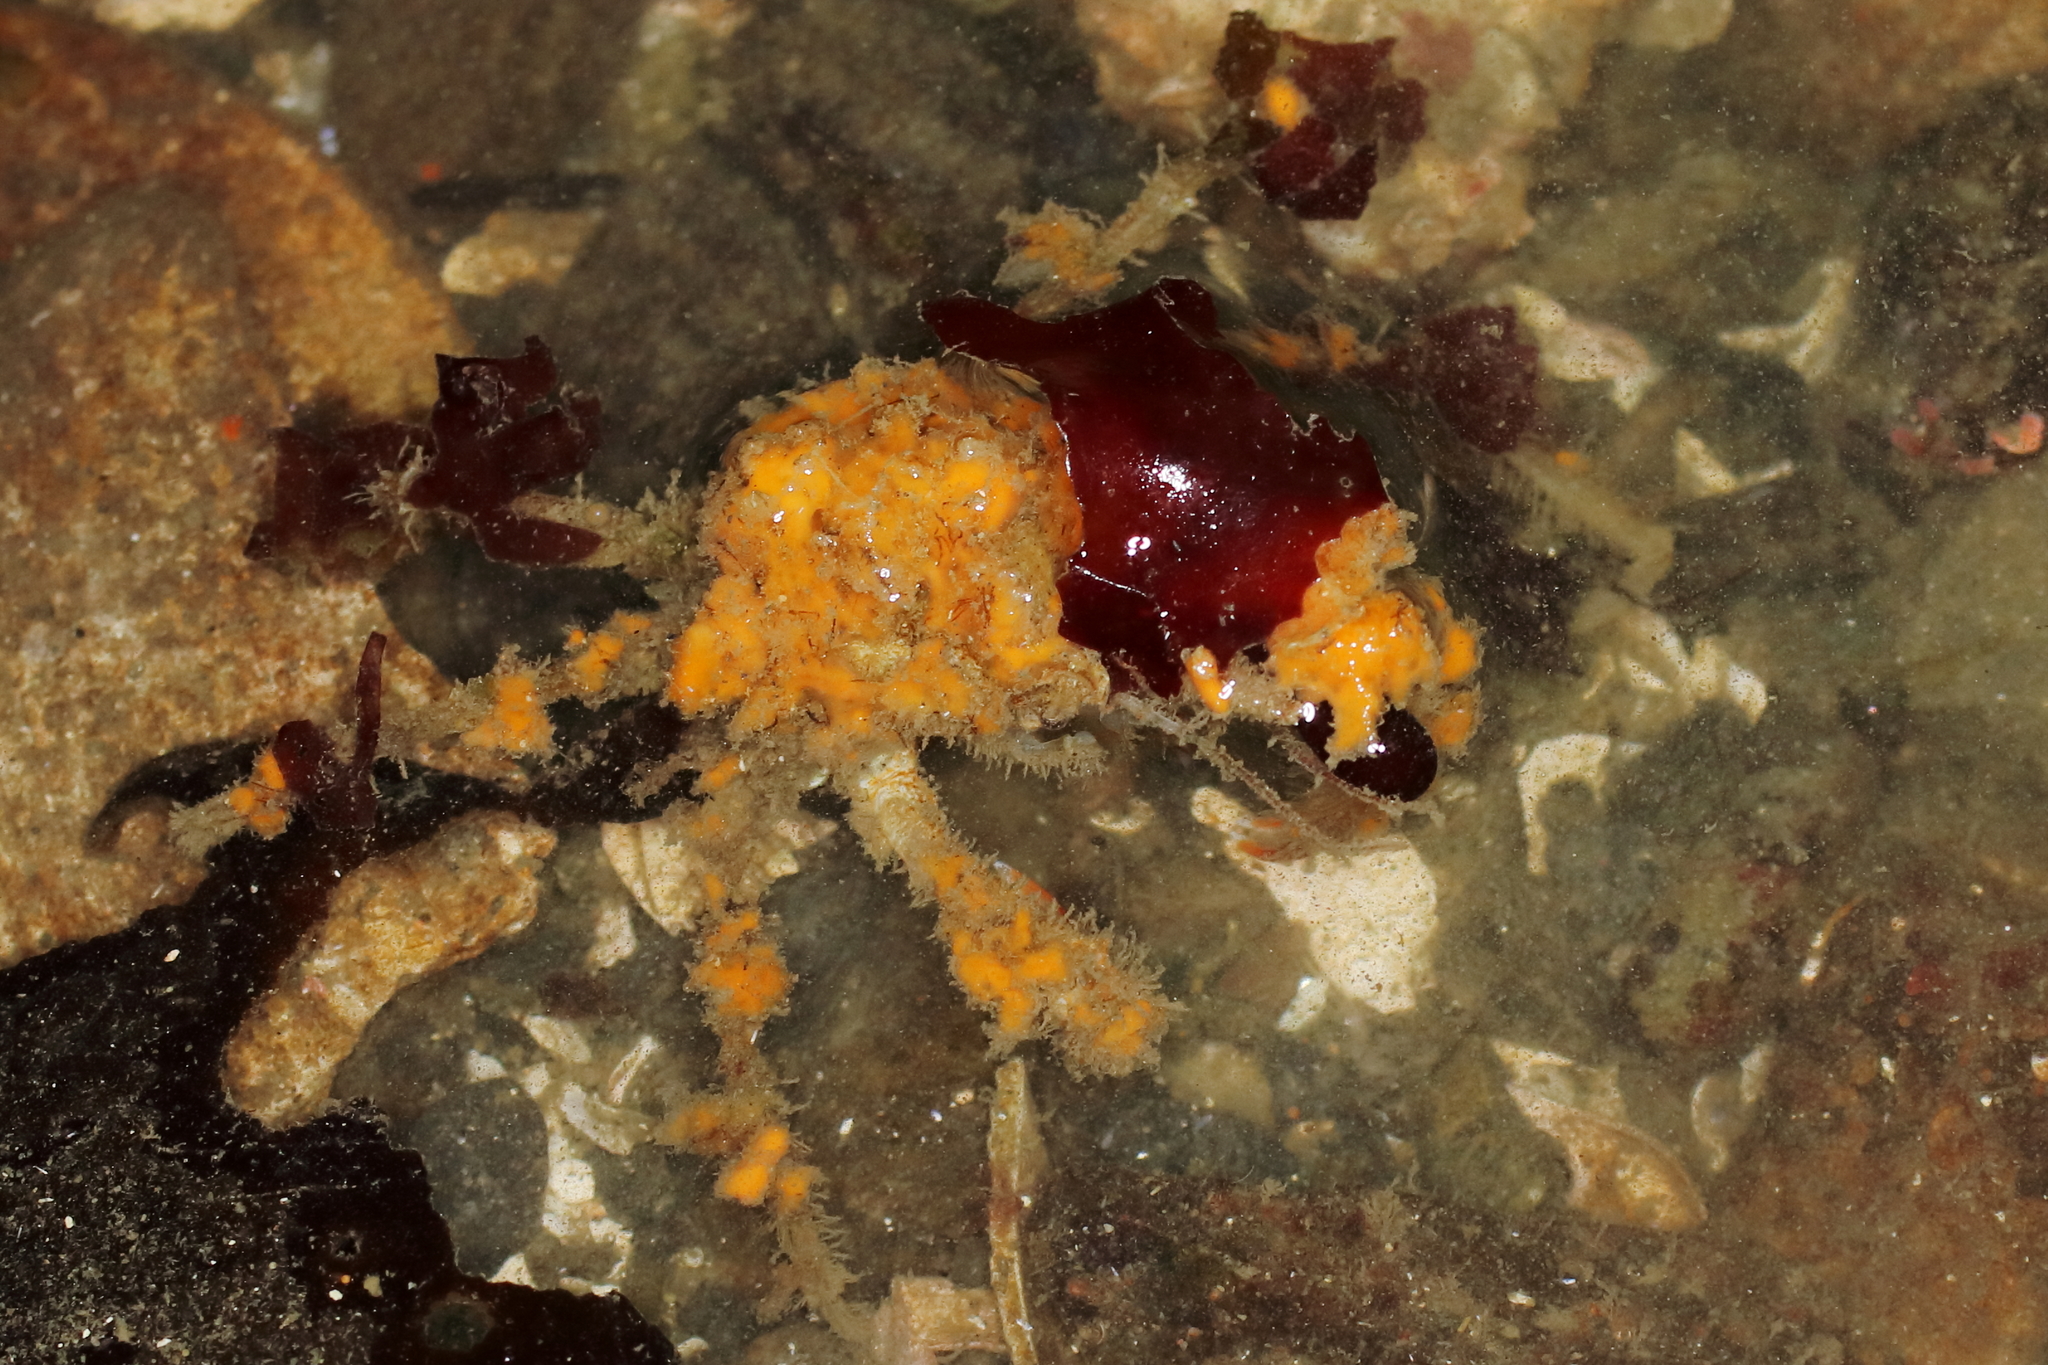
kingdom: Animalia
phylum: Arthropoda
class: Malacostraca
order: Decapoda
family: Oregoniidae
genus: Oregonia
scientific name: Oregonia gracilis
